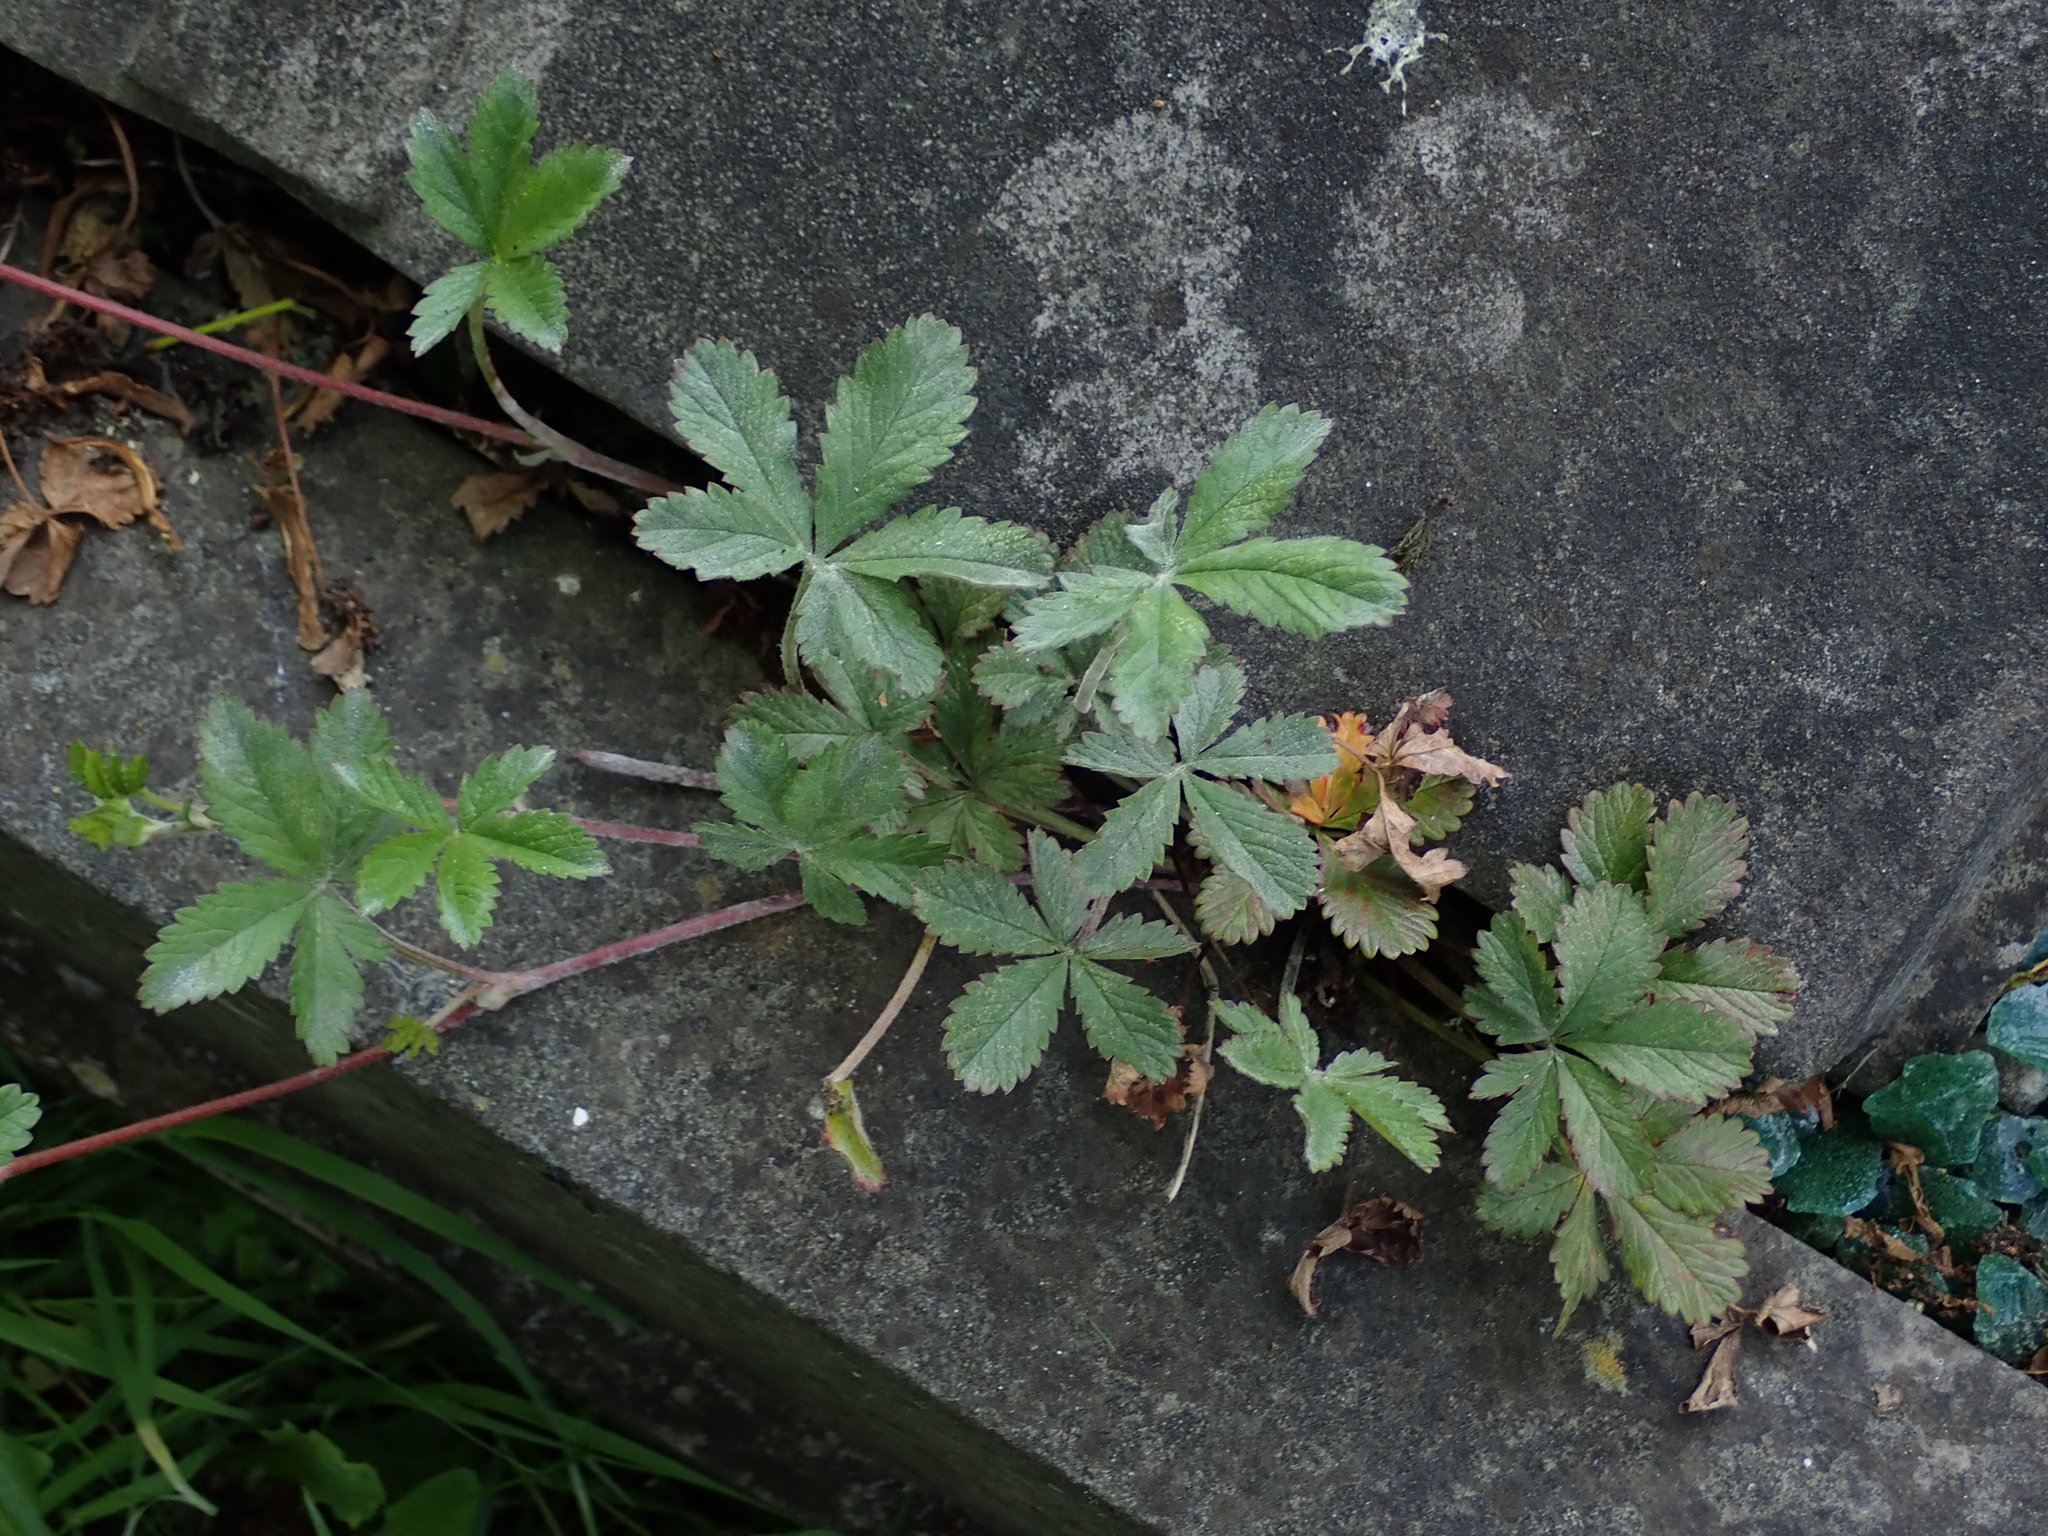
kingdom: Plantae
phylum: Tracheophyta
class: Magnoliopsida
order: Rosales
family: Rosaceae
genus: Potentilla
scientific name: Potentilla reptans
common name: Creeping cinquefoil
